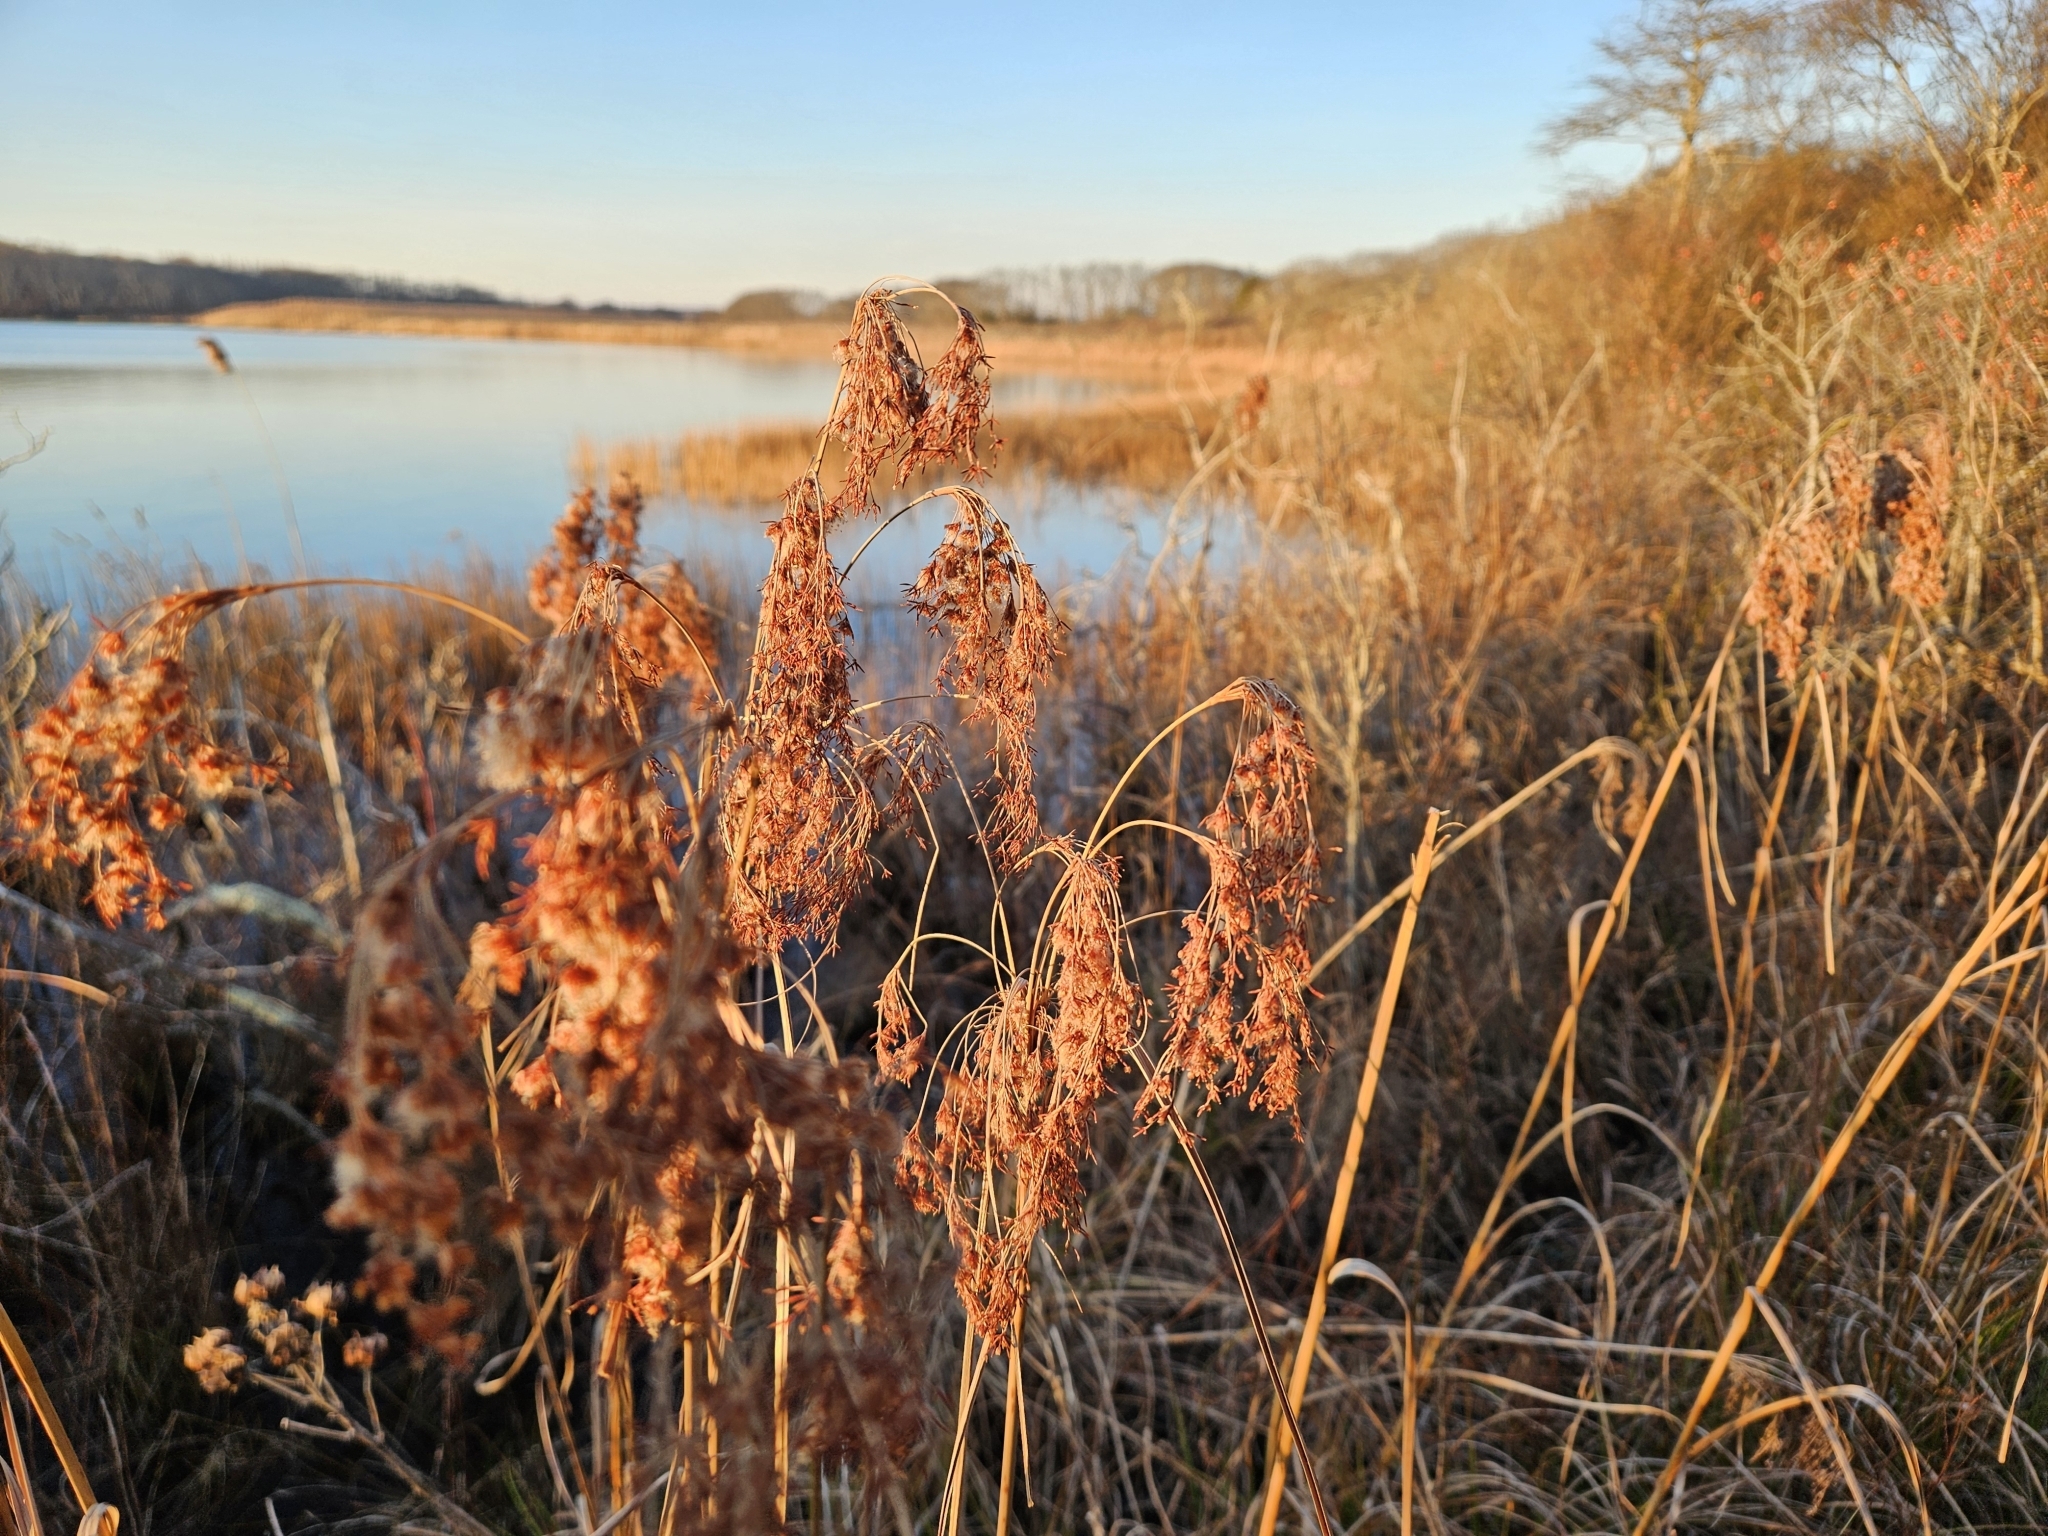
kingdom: Plantae
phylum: Tracheophyta
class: Liliopsida
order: Poales
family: Cyperaceae
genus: Scirpus
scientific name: Scirpus cyperinus
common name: Black-sheathed bulrush
